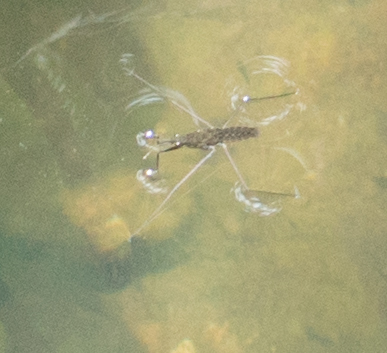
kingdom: Animalia
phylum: Arthropoda
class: Insecta
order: Hemiptera
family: Gerridae
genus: Aquarius
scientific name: Aquarius remigis
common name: Common water strider
